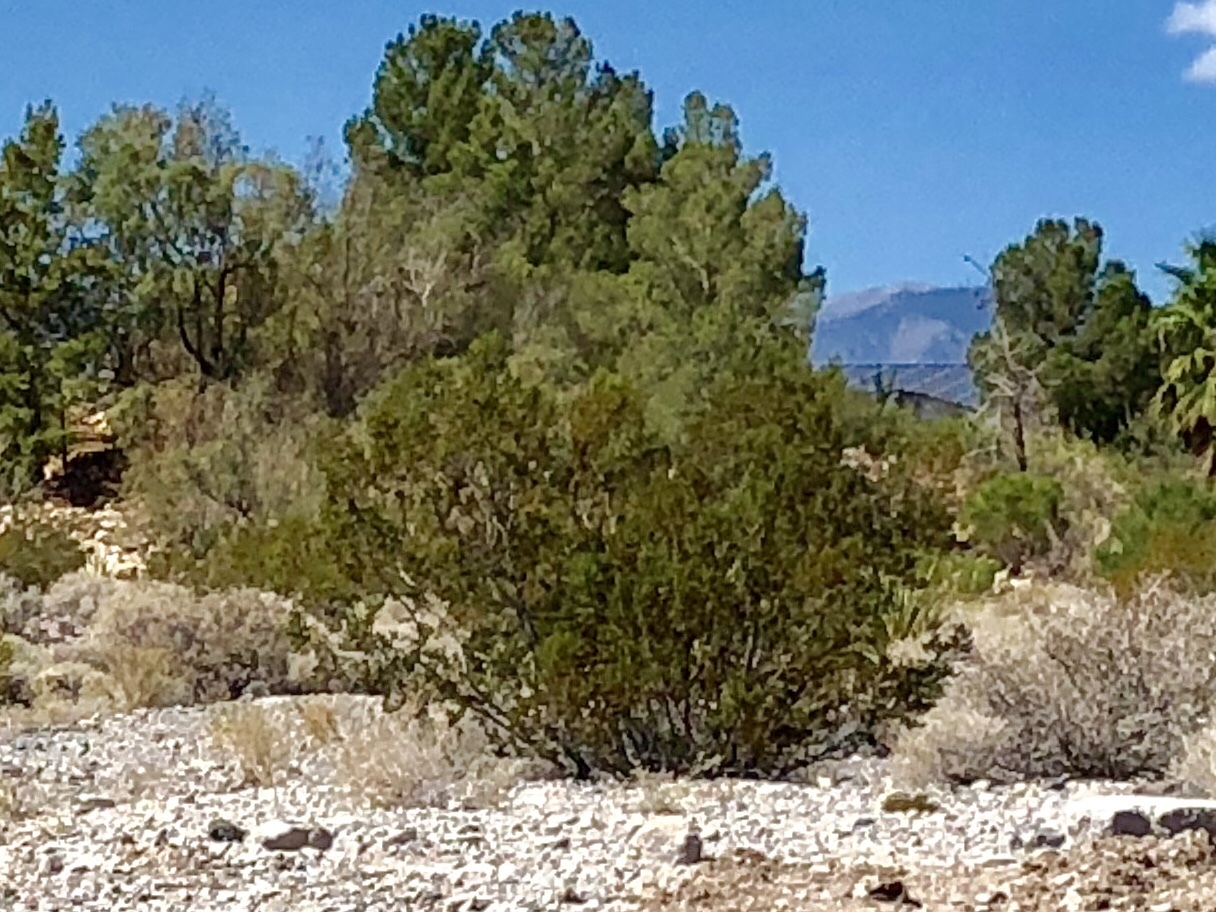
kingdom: Plantae
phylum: Tracheophyta
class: Magnoliopsida
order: Zygophyllales
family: Zygophyllaceae
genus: Larrea
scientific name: Larrea tridentata
